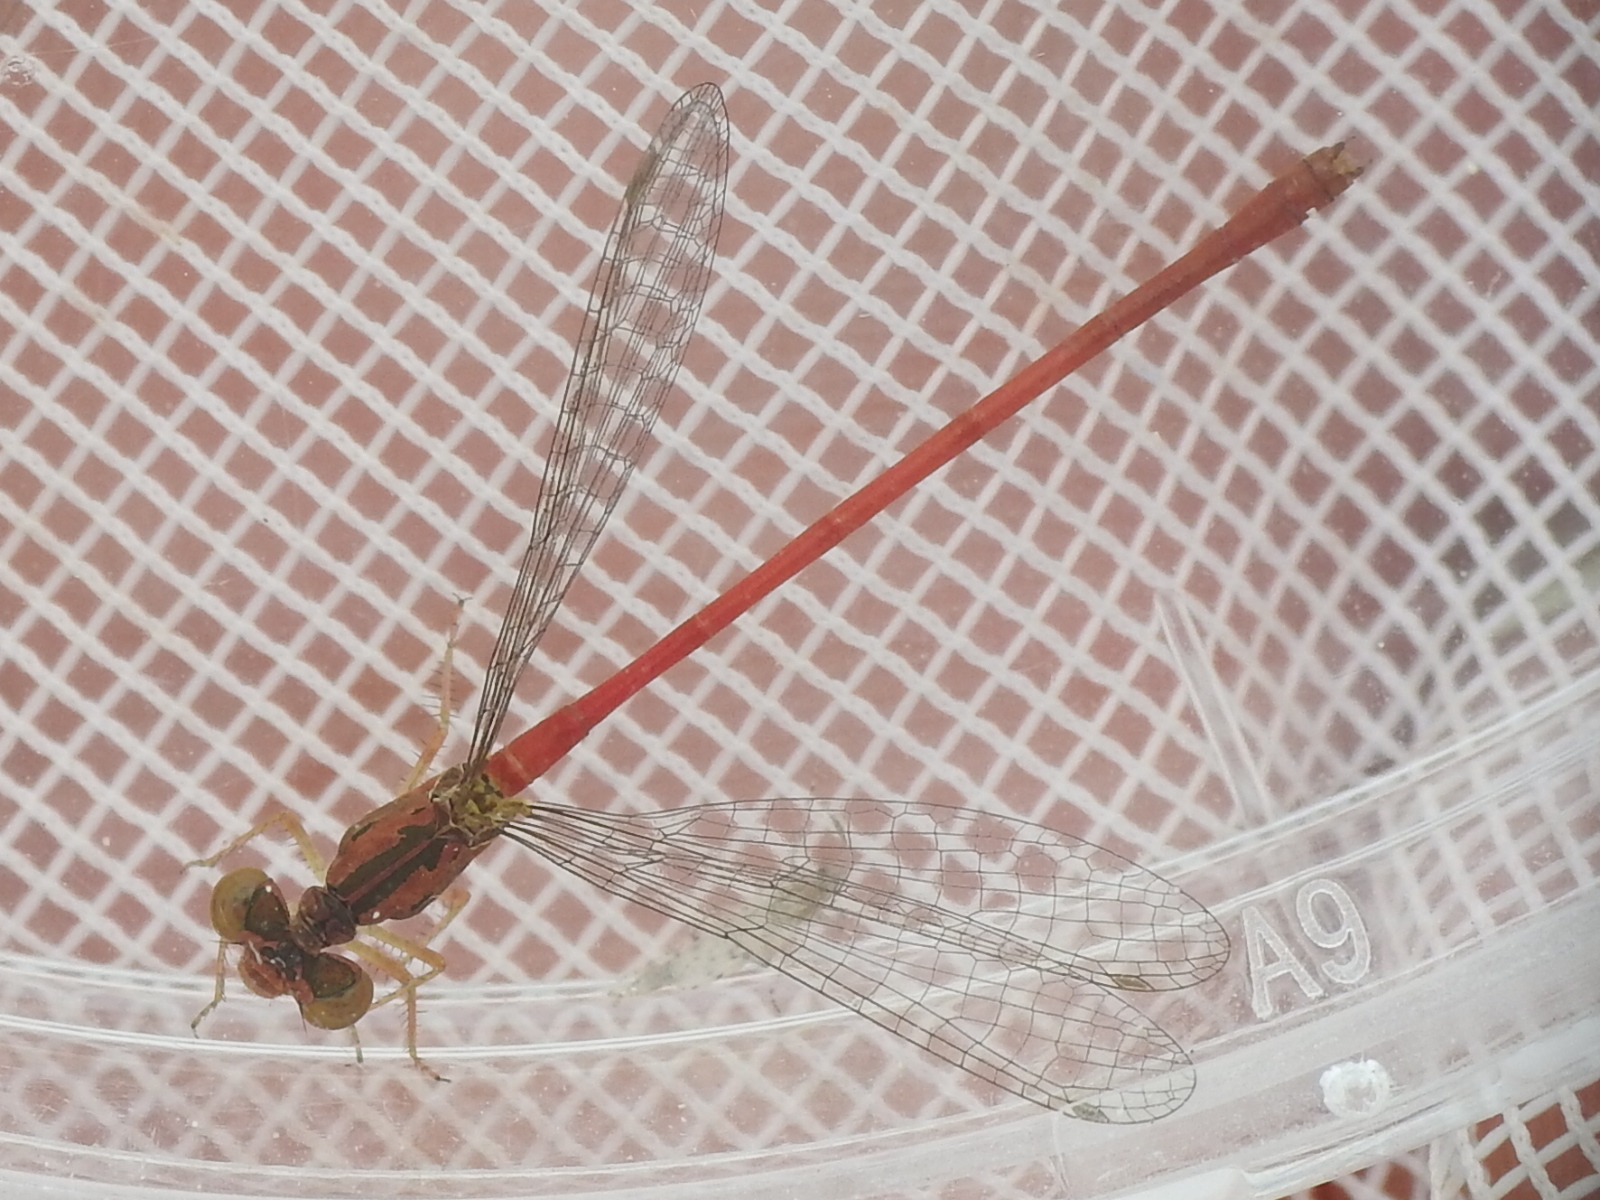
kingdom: Animalia
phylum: Arthropoda
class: Insecta
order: Odonata
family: Coenagrionidae
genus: Telebasis
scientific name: Telebasis salva
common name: Desert firetail
